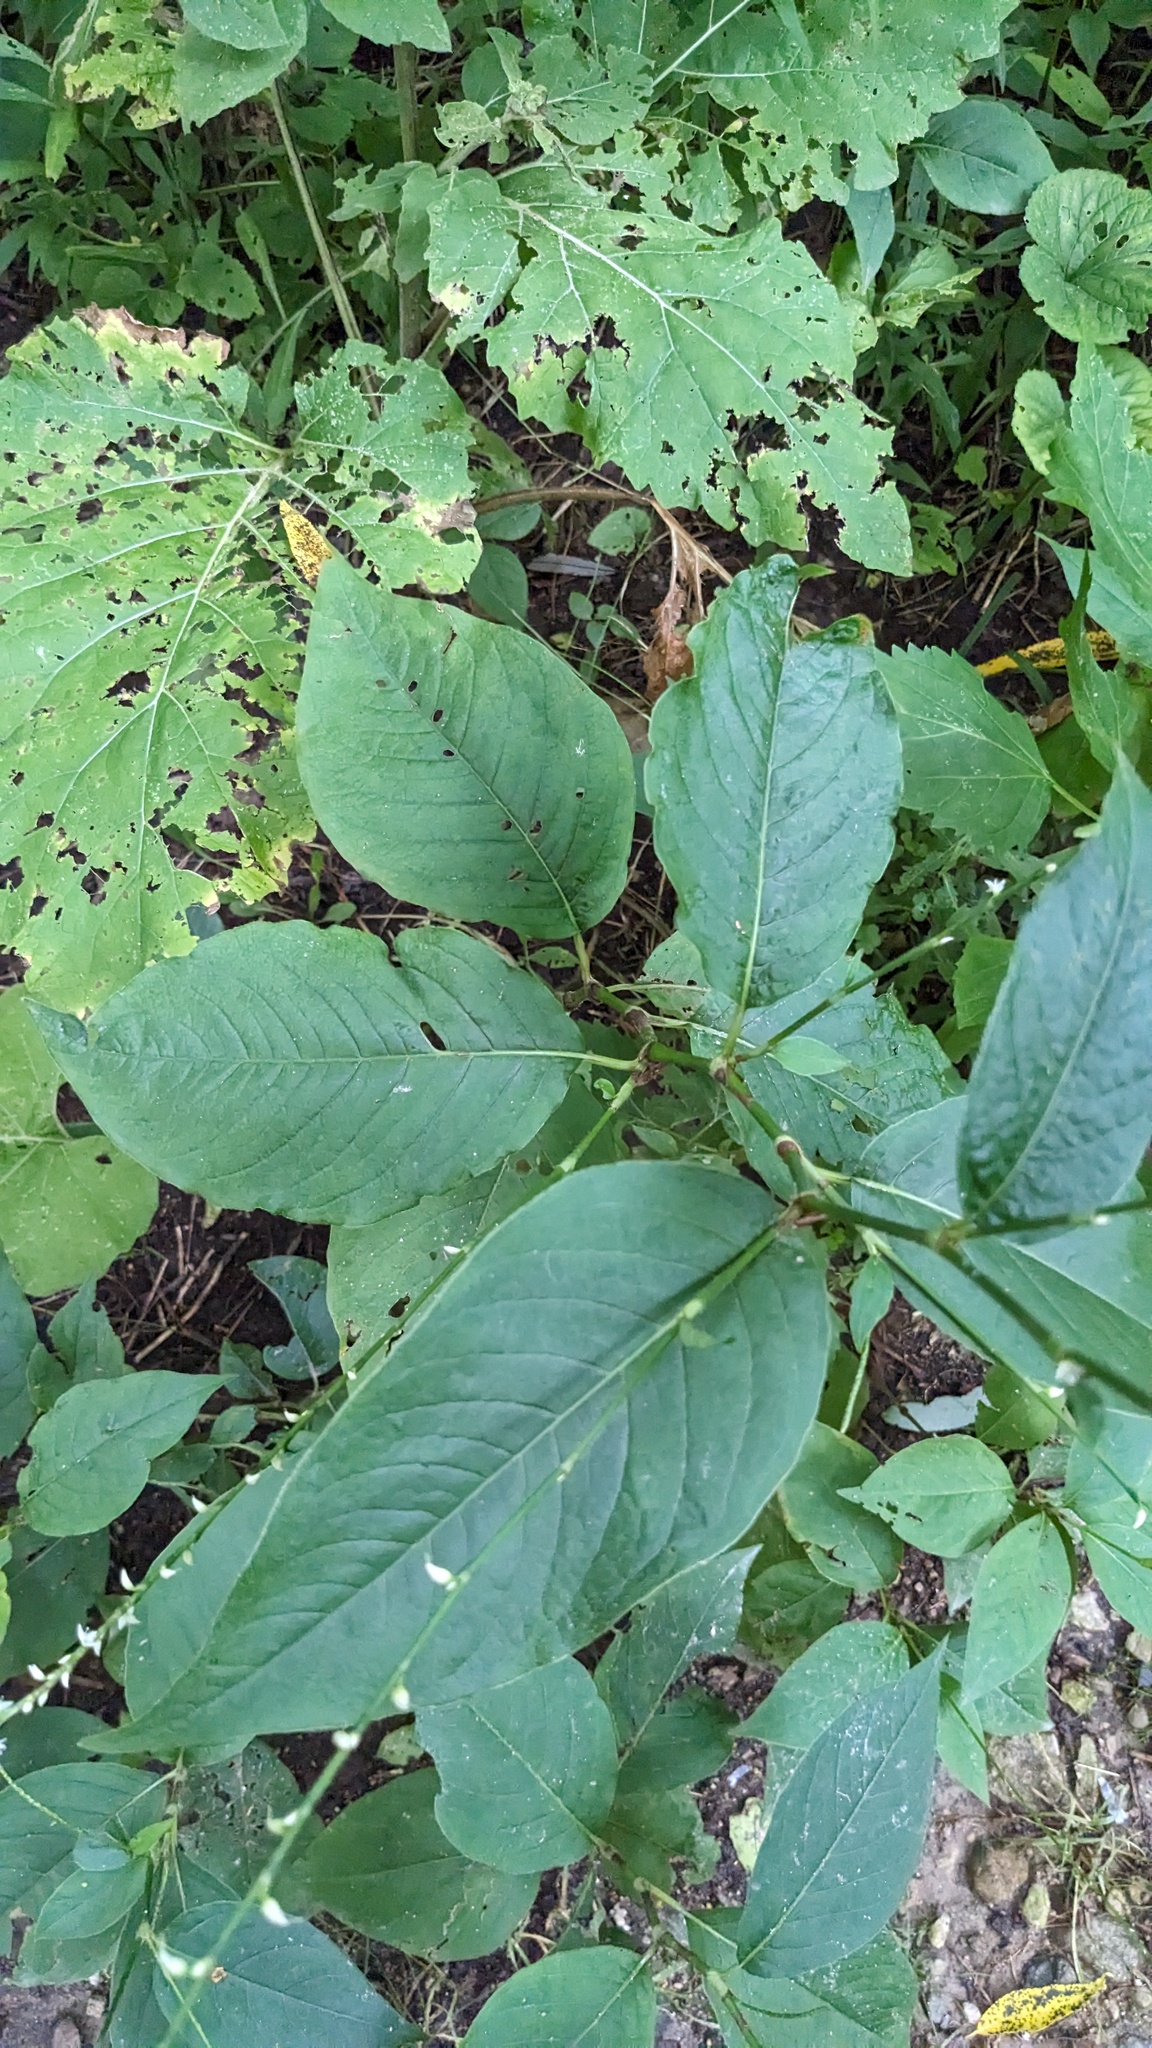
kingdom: Plantae
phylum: Tracheophyta
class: Magnoliopsida
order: Caryophyllales
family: Polygonaceae
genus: Persicaria
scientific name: Persicaria virginiana
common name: Jumpseed
